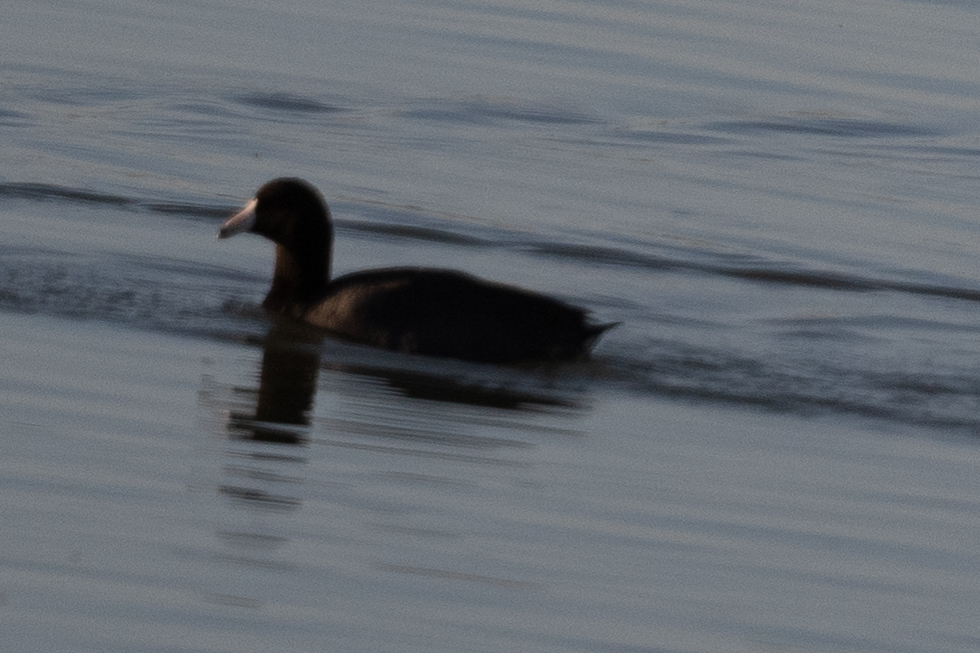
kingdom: Animalia
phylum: Chordata
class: Aves
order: Gruiformes
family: Rallidae
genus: Fulica
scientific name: Fulica americana
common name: American coot
